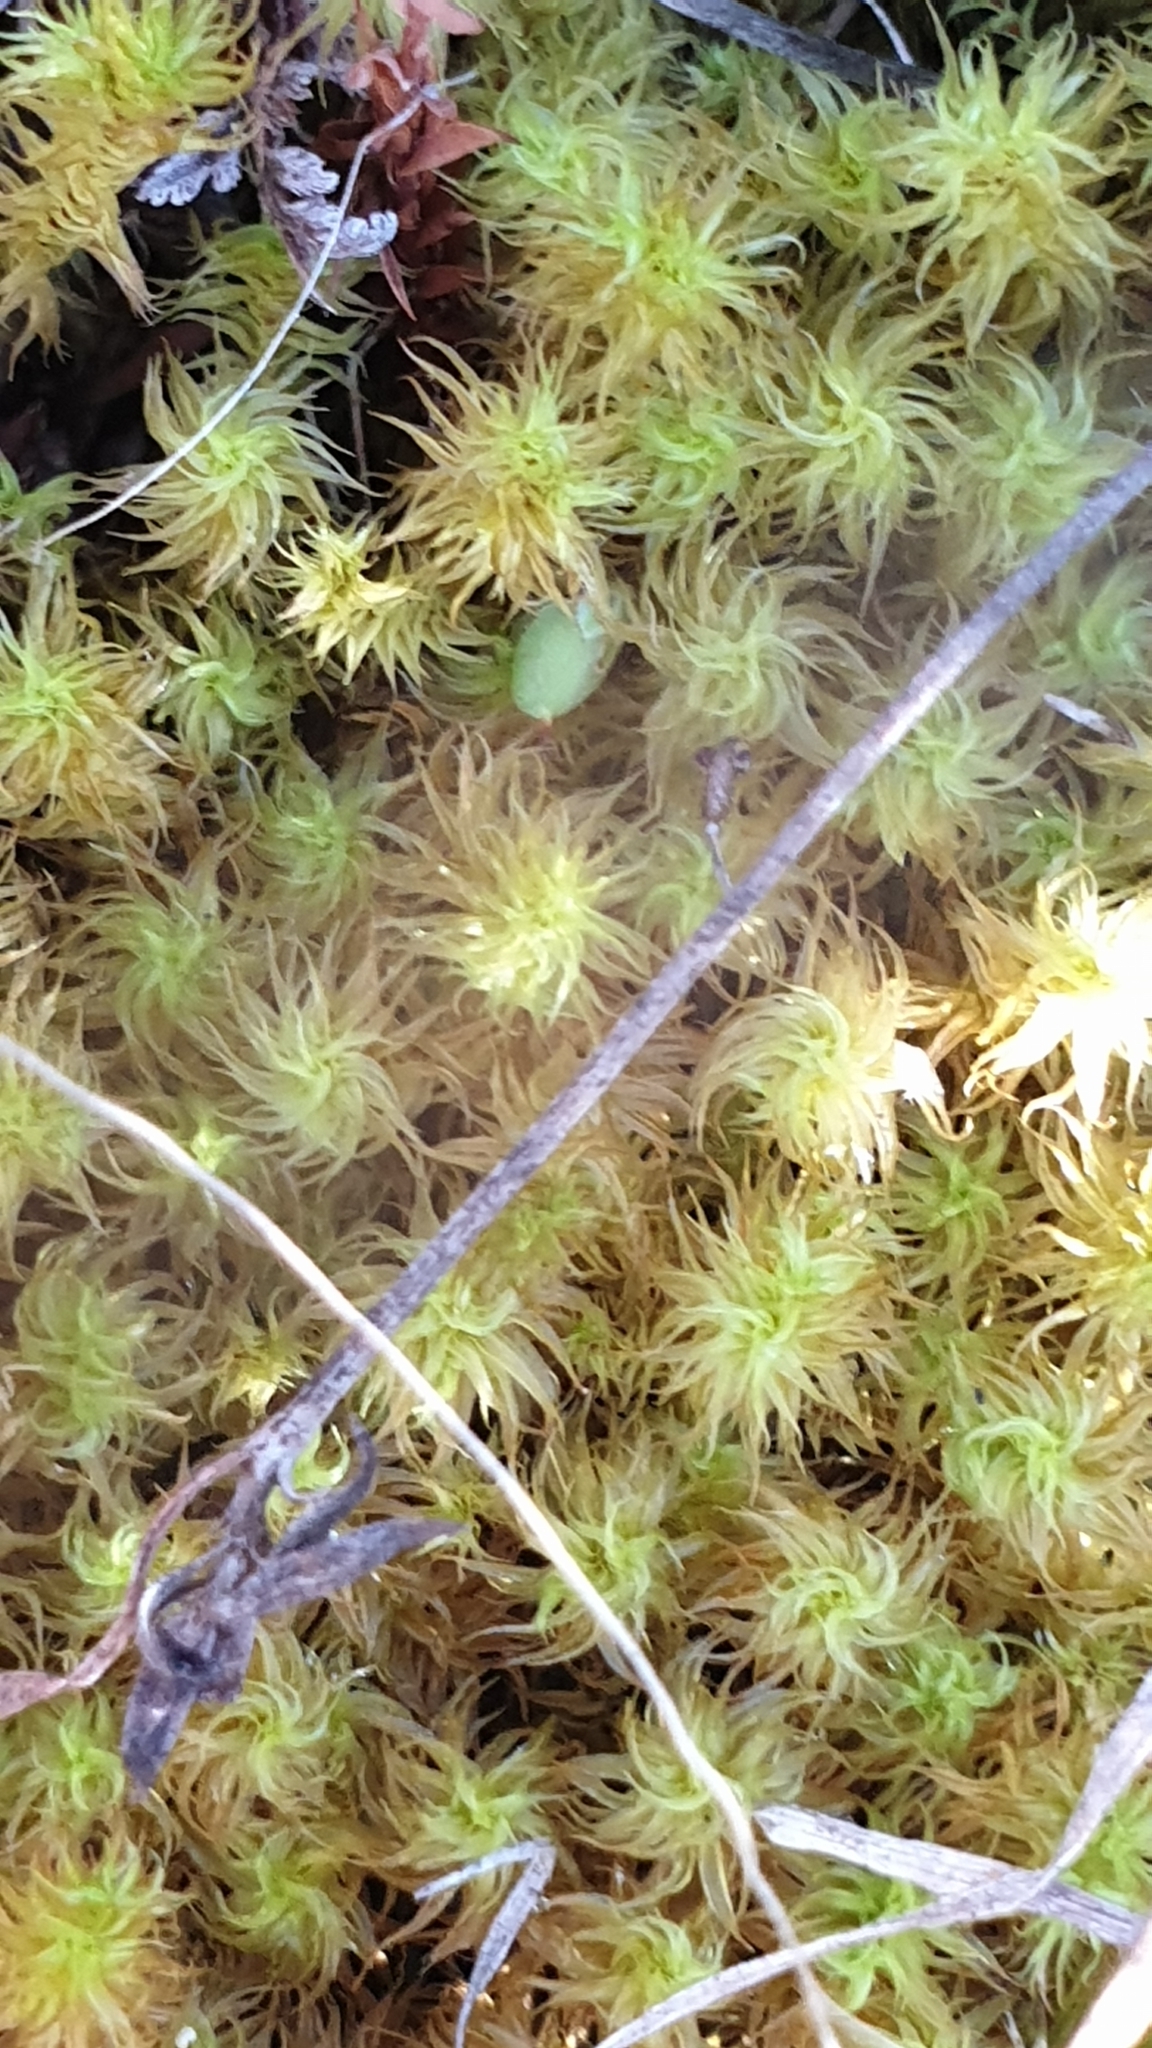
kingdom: Plantae
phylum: Bryophyta
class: Bryopsida
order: Pottiales
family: Pottiaceae
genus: Triquetrella
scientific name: Triquetrella paradoxa
